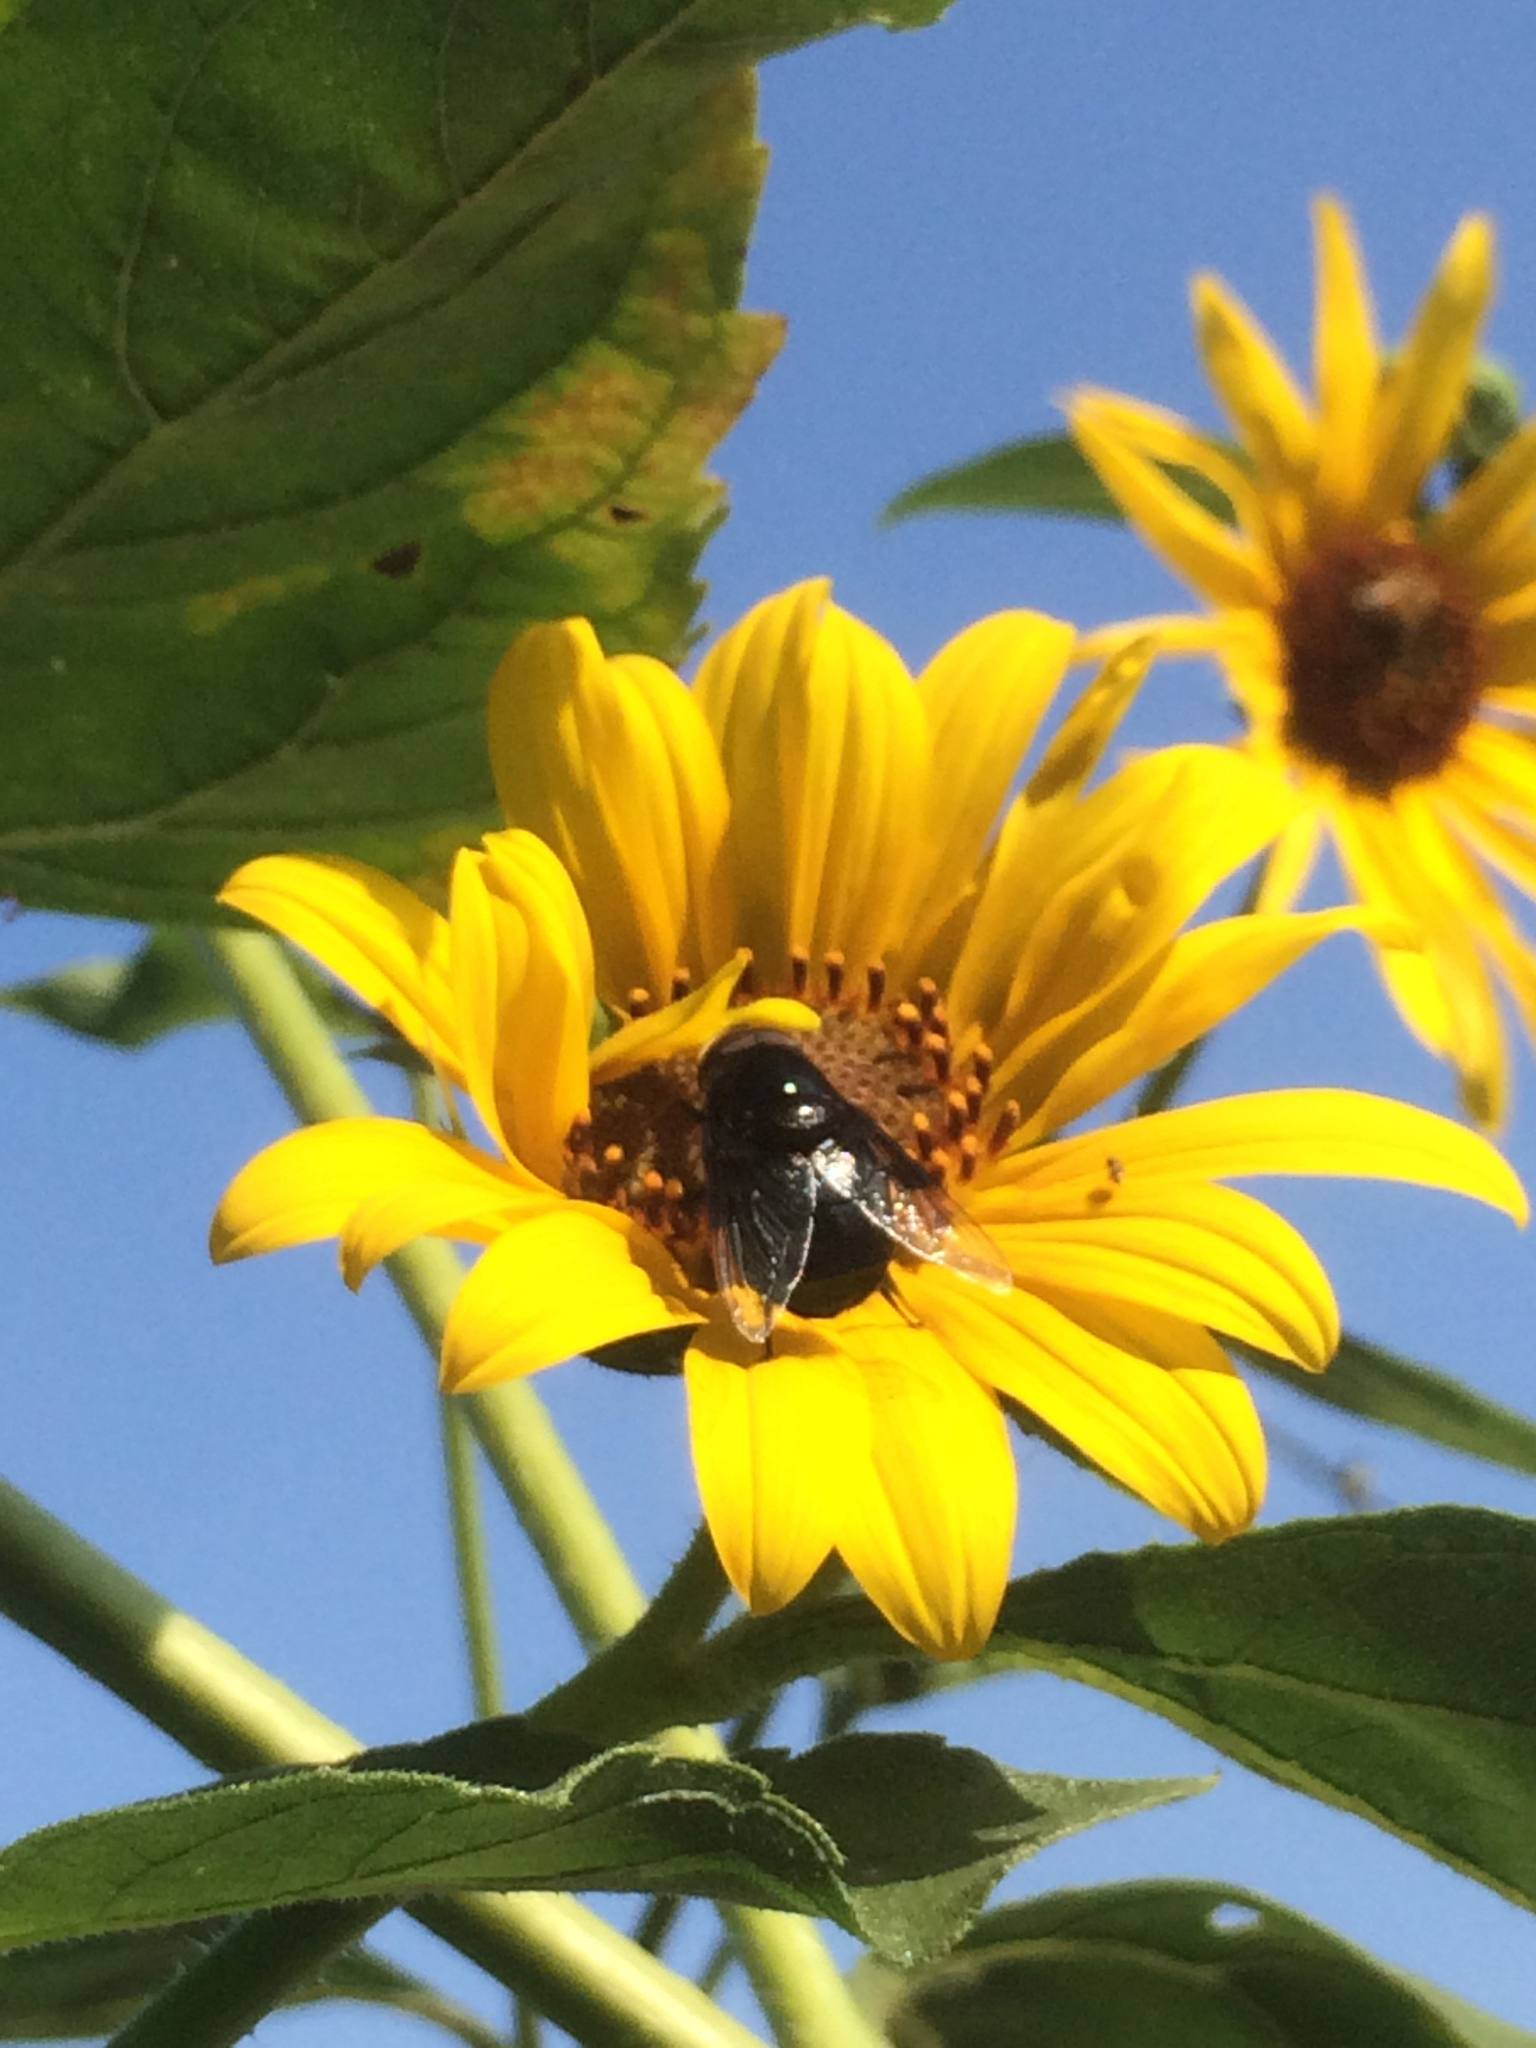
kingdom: Animalia
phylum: Arthropoda
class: Insecta
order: Diptera
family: Syrphidae
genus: Copestylum
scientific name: Copestylum mexicanum
